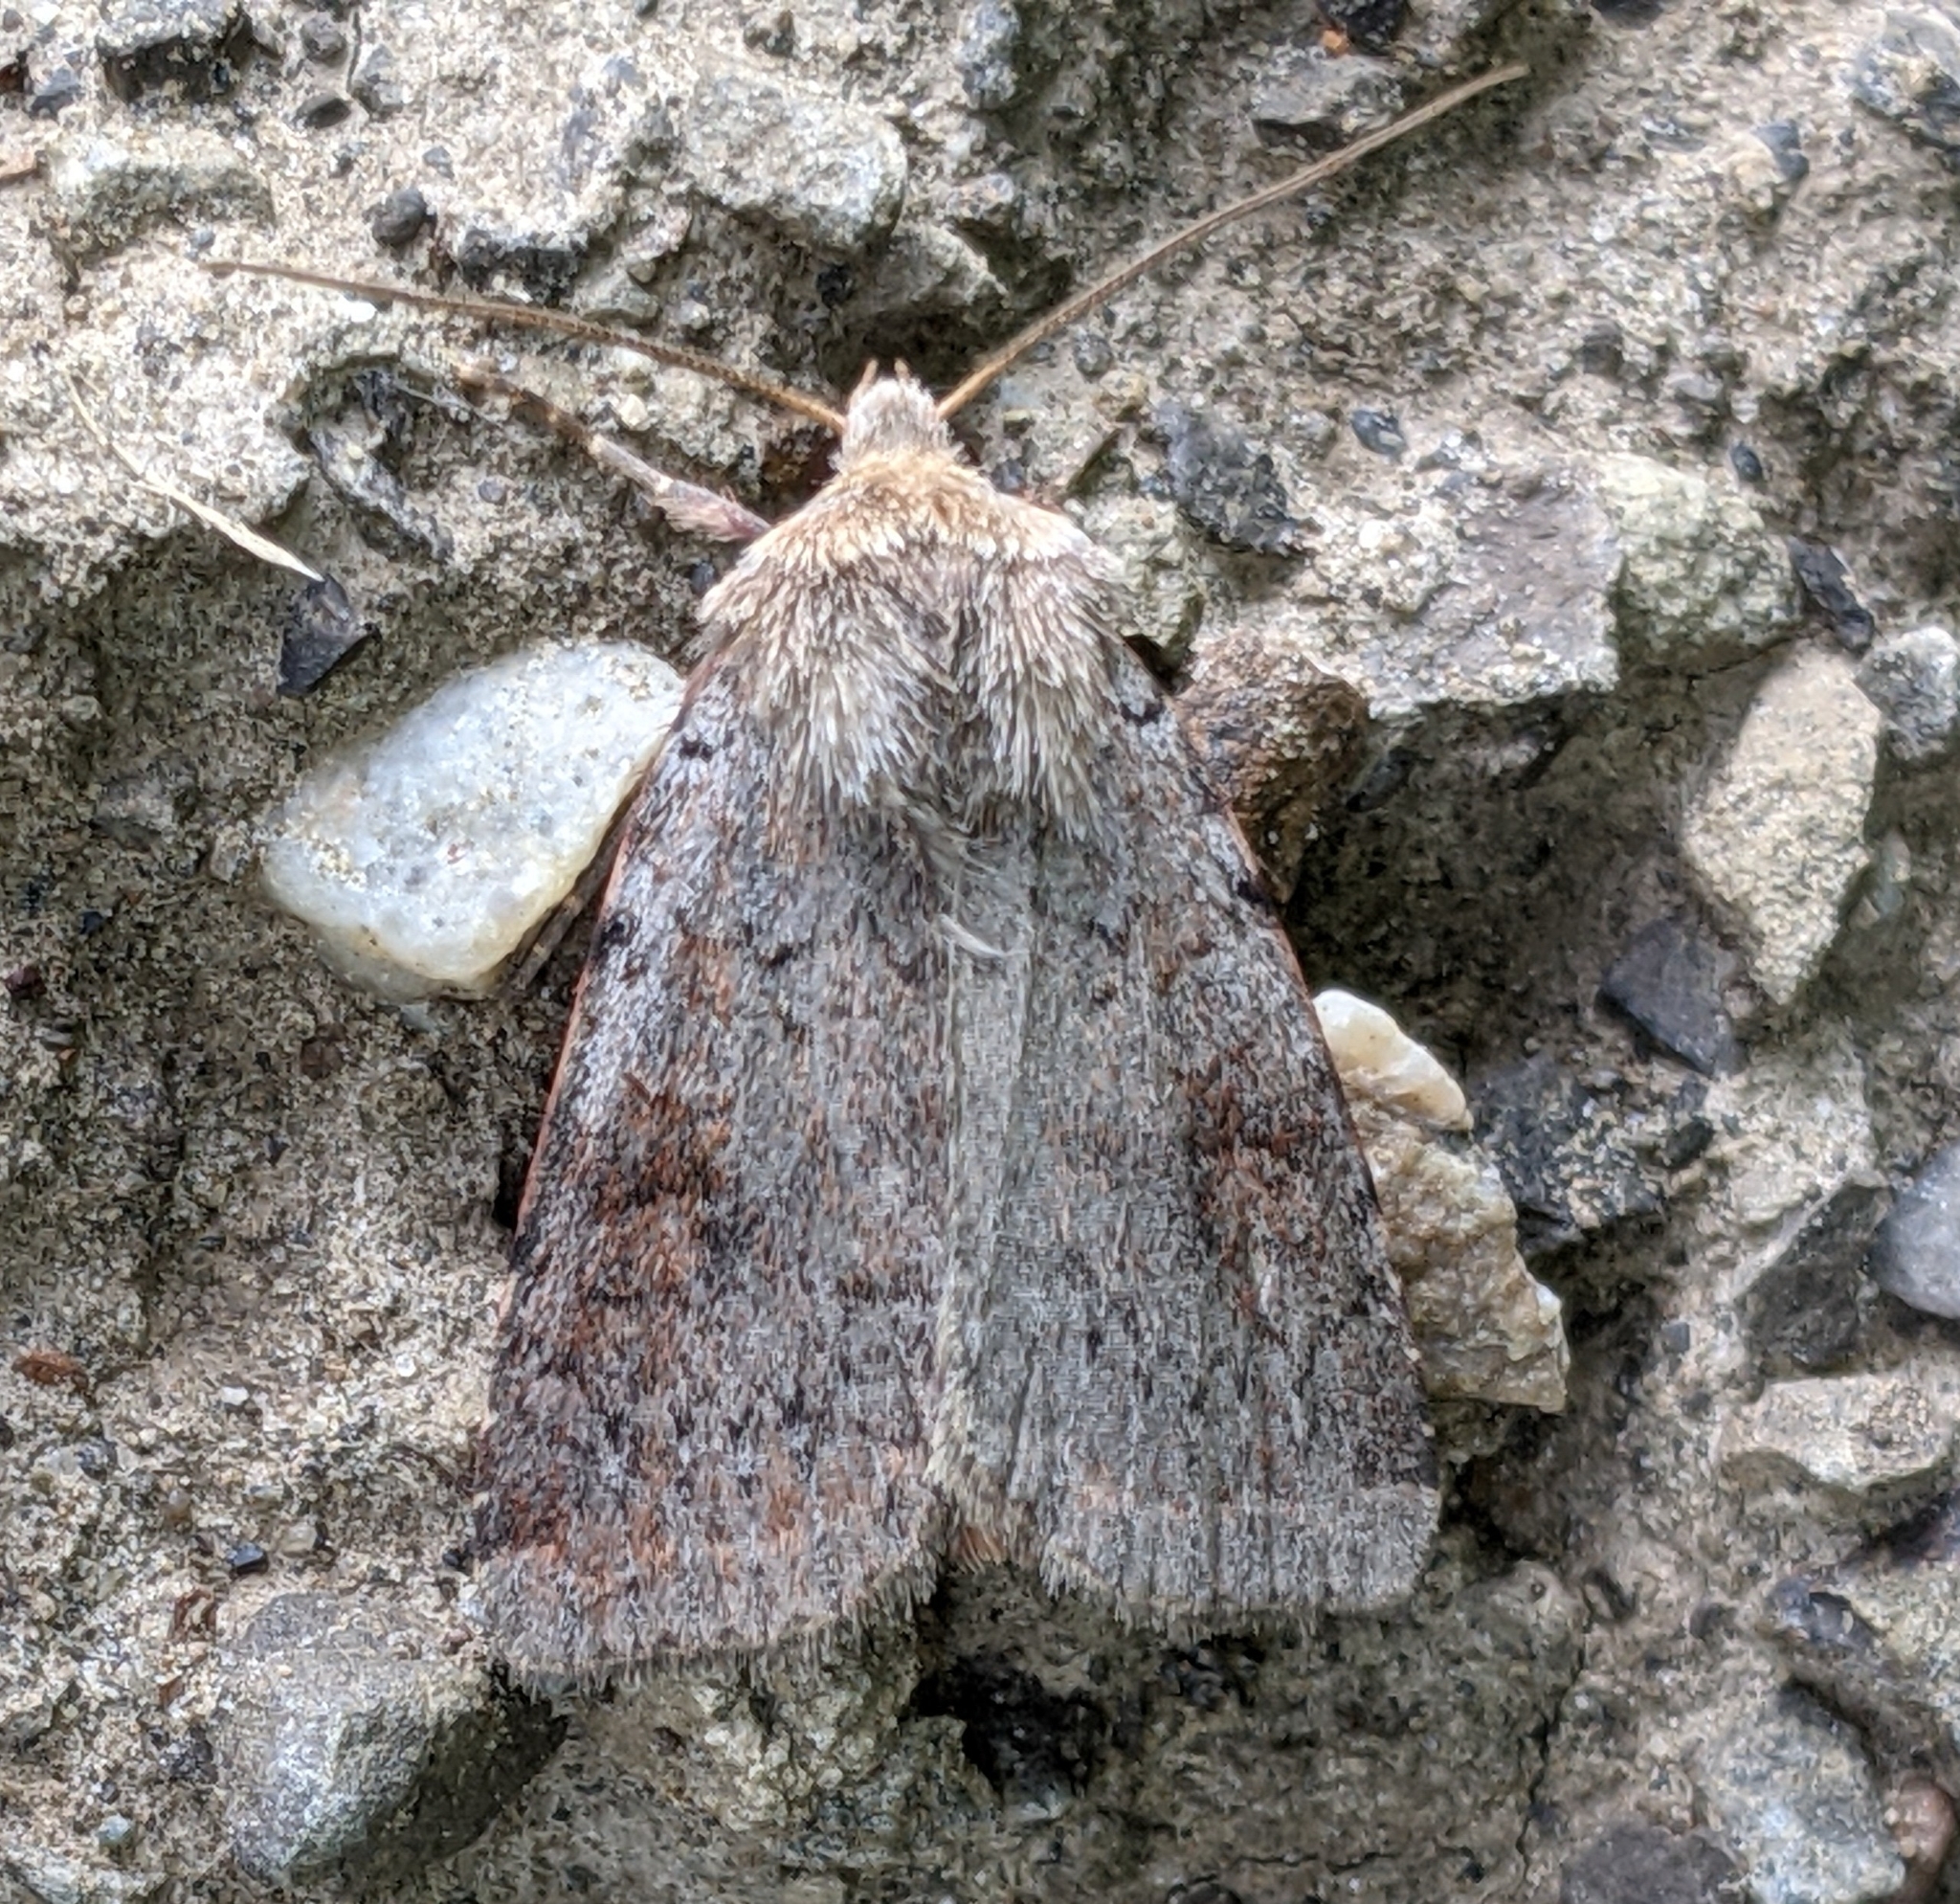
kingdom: Animalia
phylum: Arthropoda
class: Insecta
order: Lepidoptera
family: Noctuidae
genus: Caradrina
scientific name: Caradrina montana
